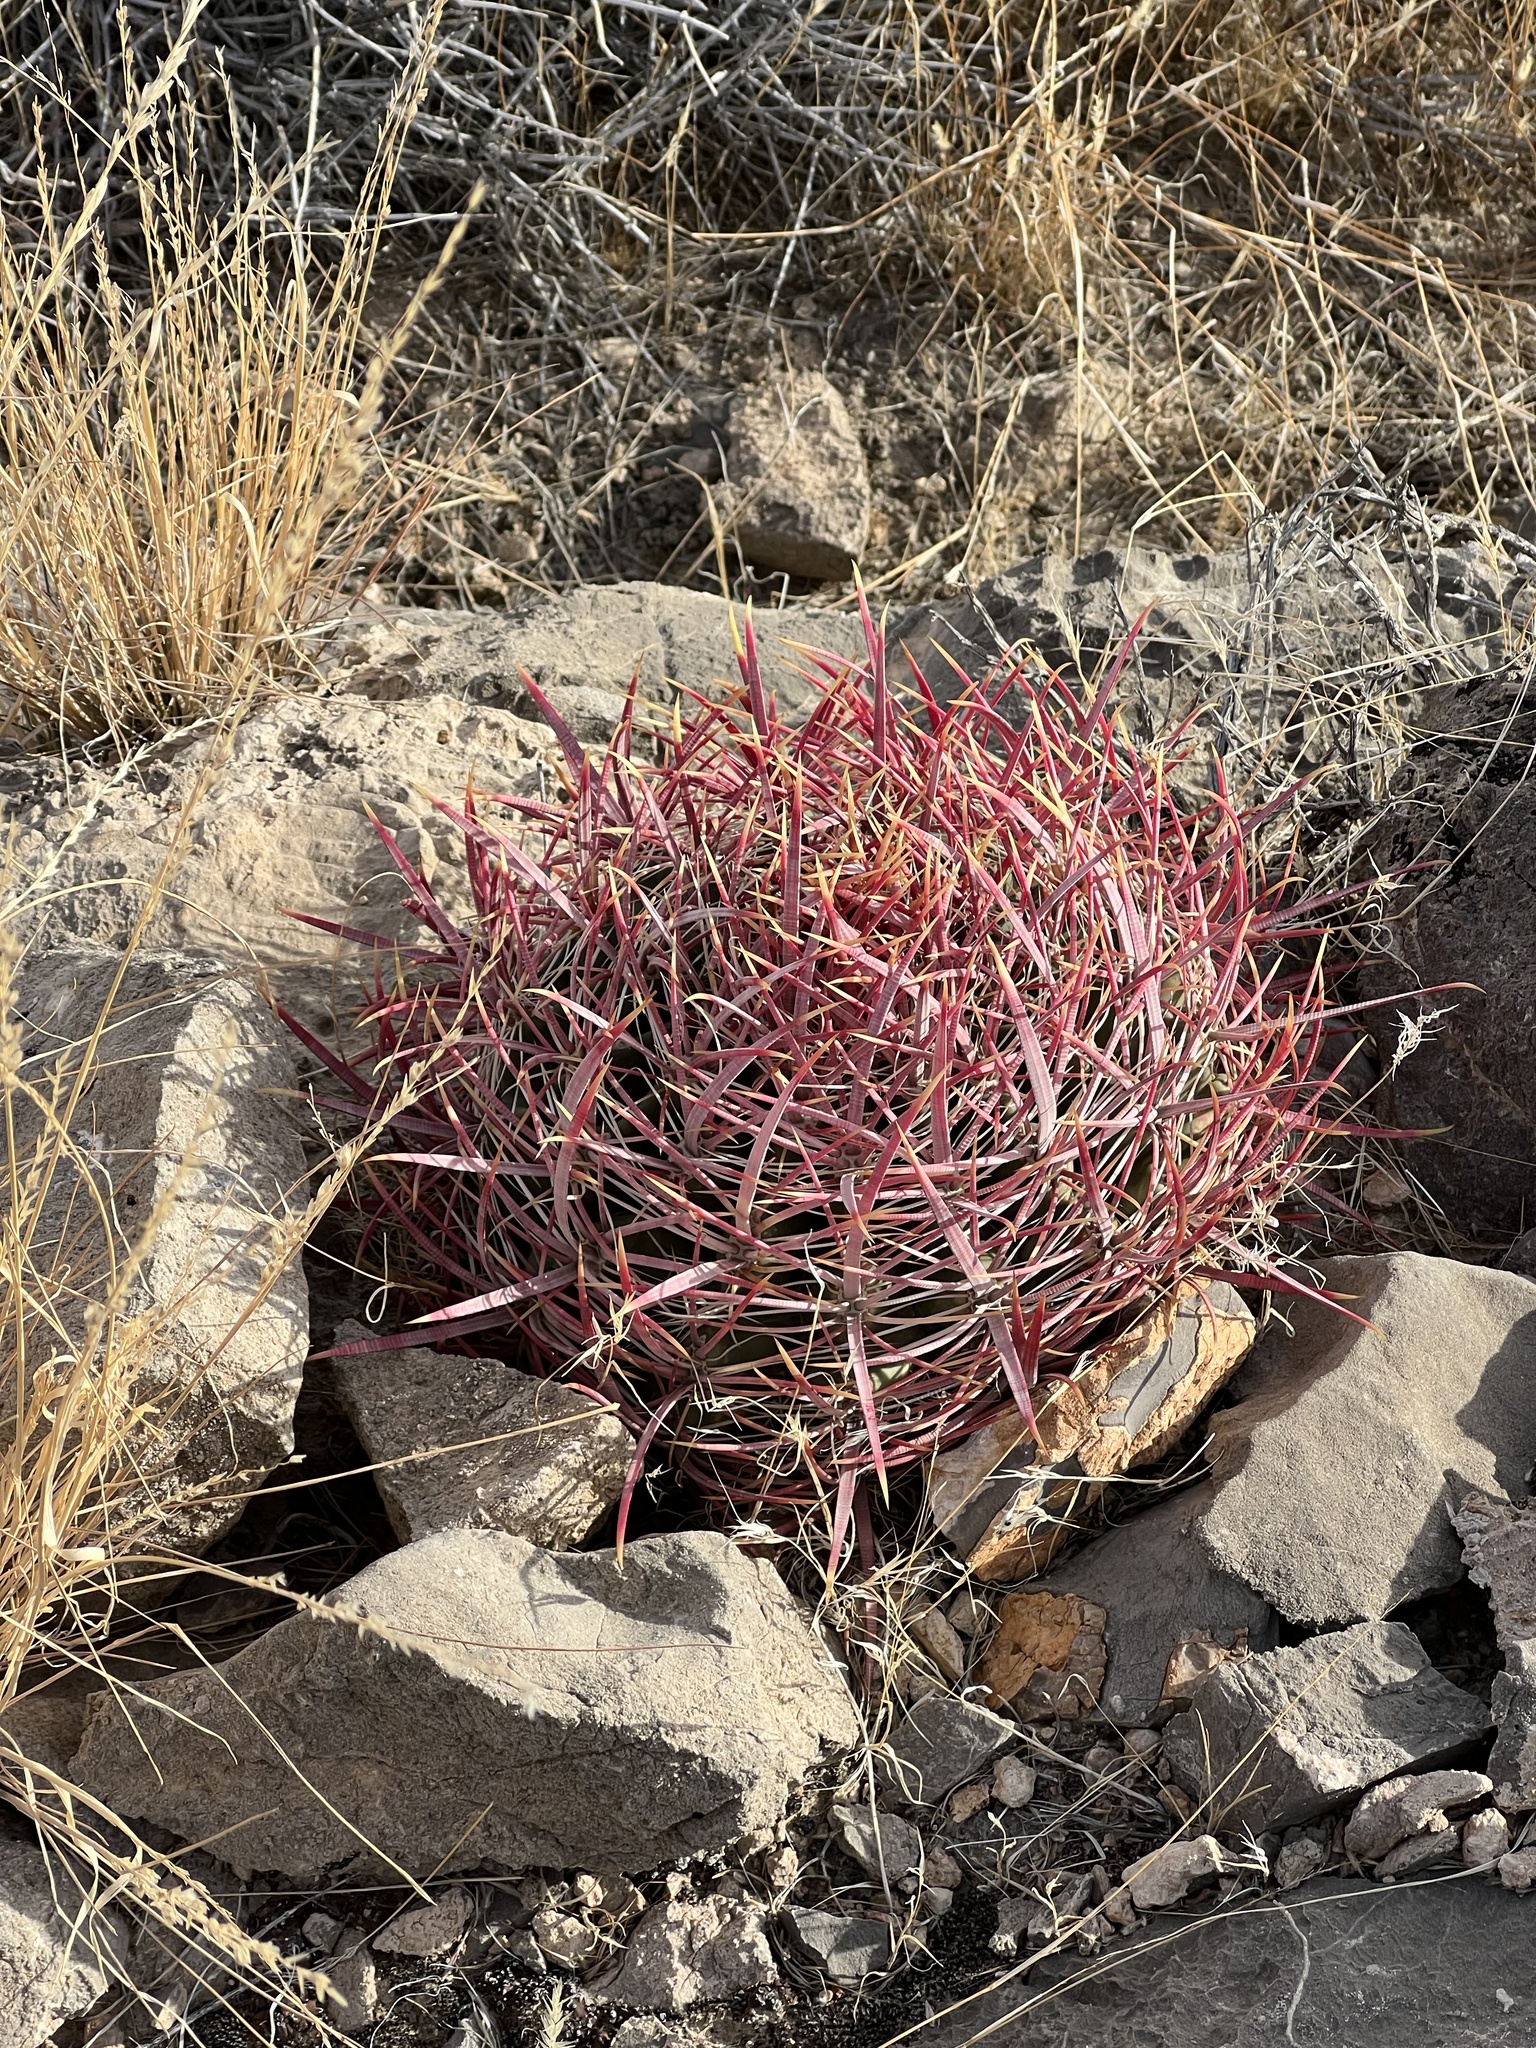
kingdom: Plantae
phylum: Tracheophyta
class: Magnoliopsida
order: Caryophyllales
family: Cactaceae
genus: Ferocactus
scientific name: Ferocactus cylindraceus
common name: California barrel cactus
